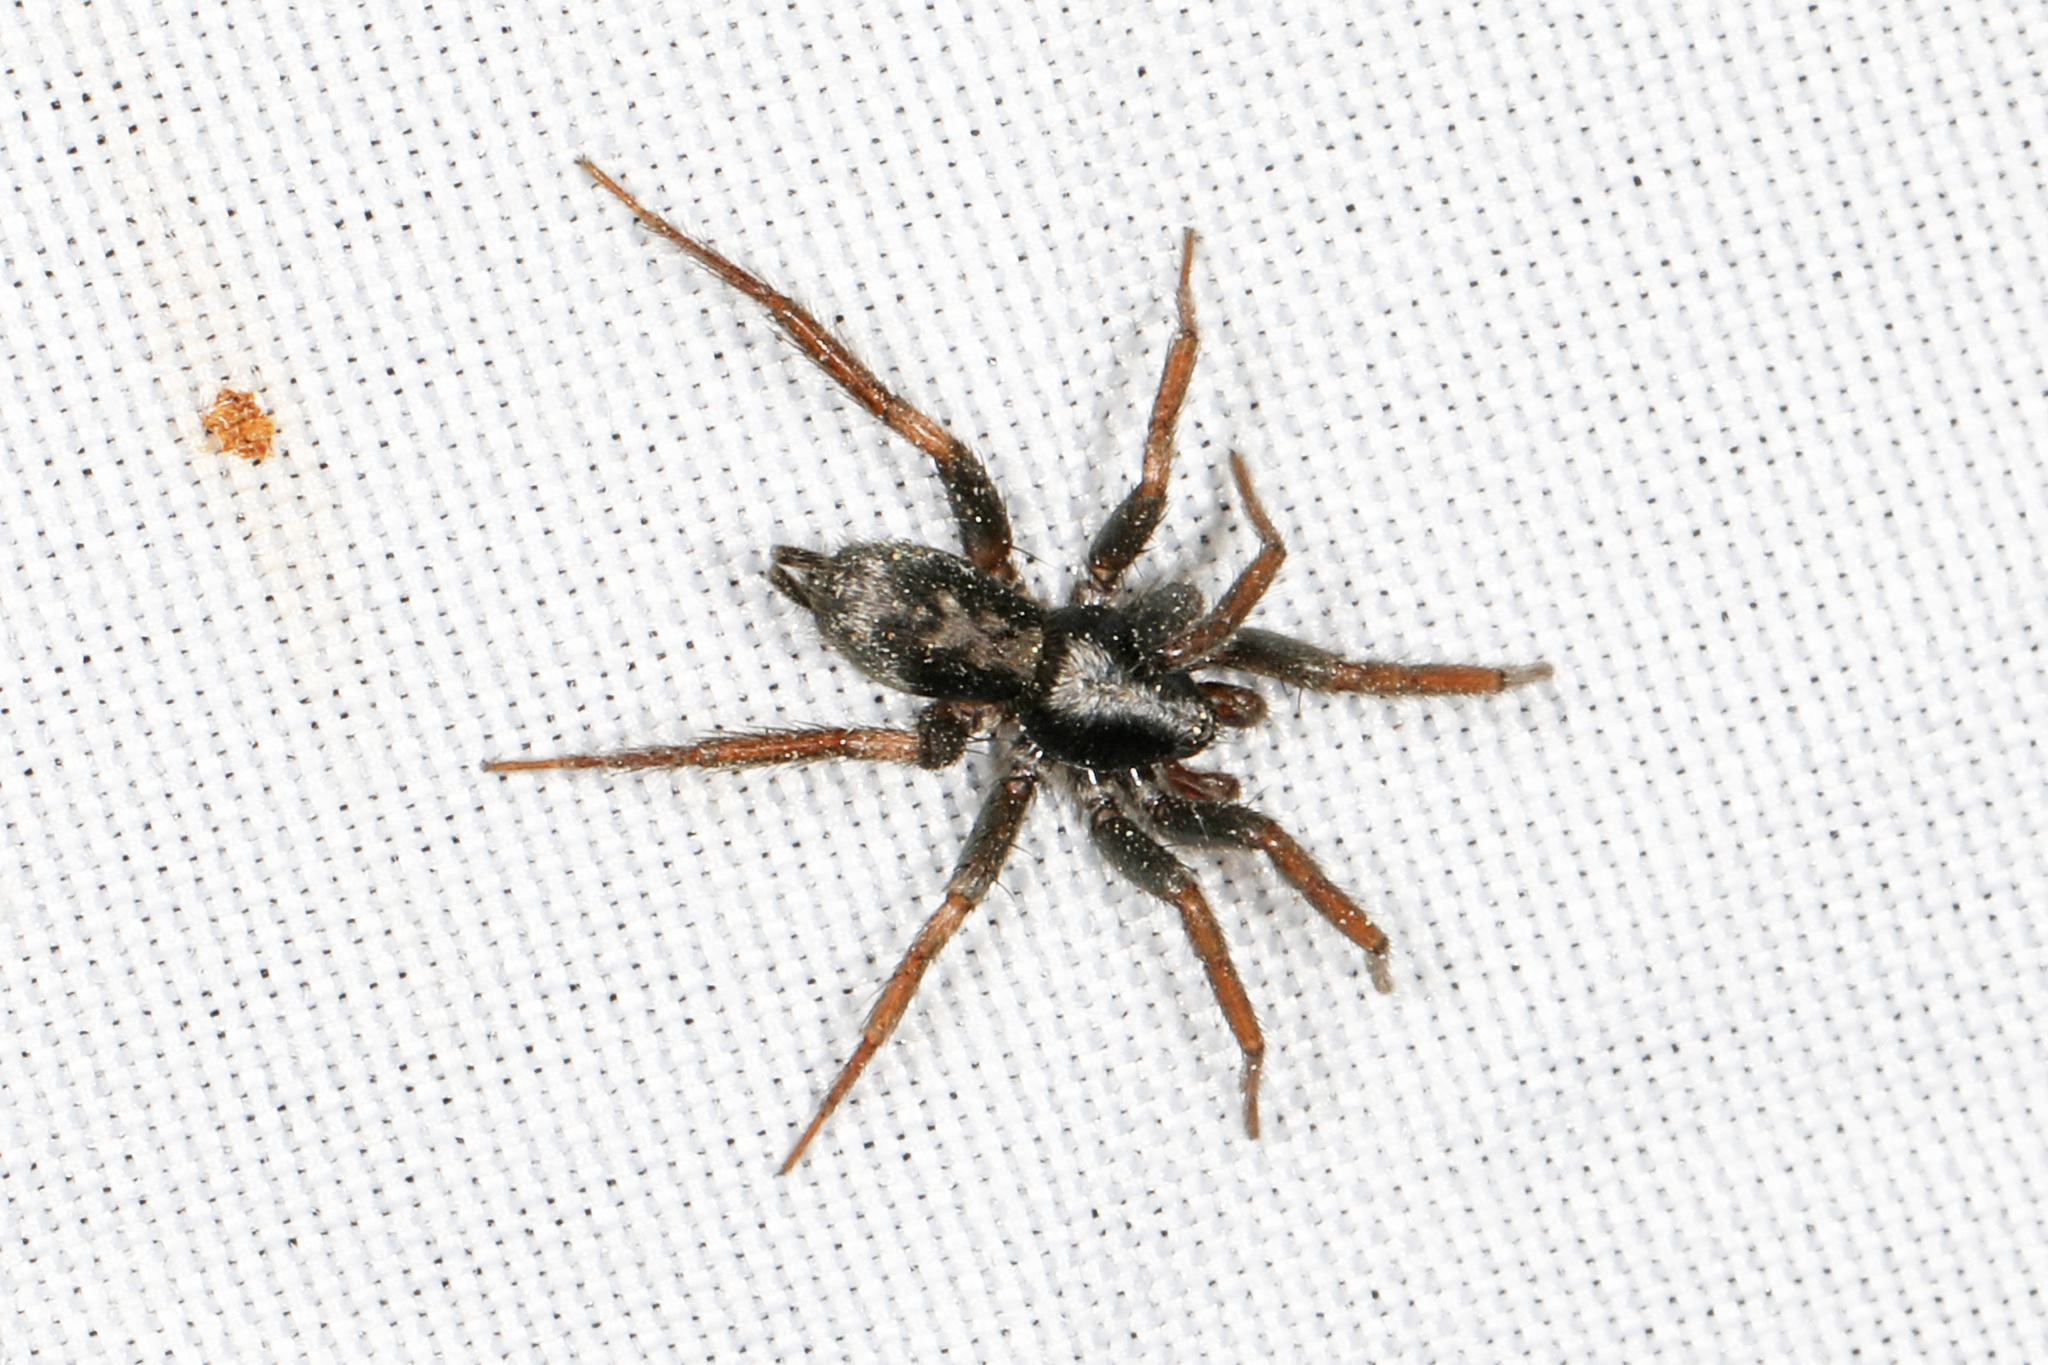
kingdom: Animalia
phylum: Arthropoda
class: Arachnida
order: Araneae
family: Gnaphosidae
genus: Herpyllus
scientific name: Herpyllus ecclesiasticus
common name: Eastern parson spider
